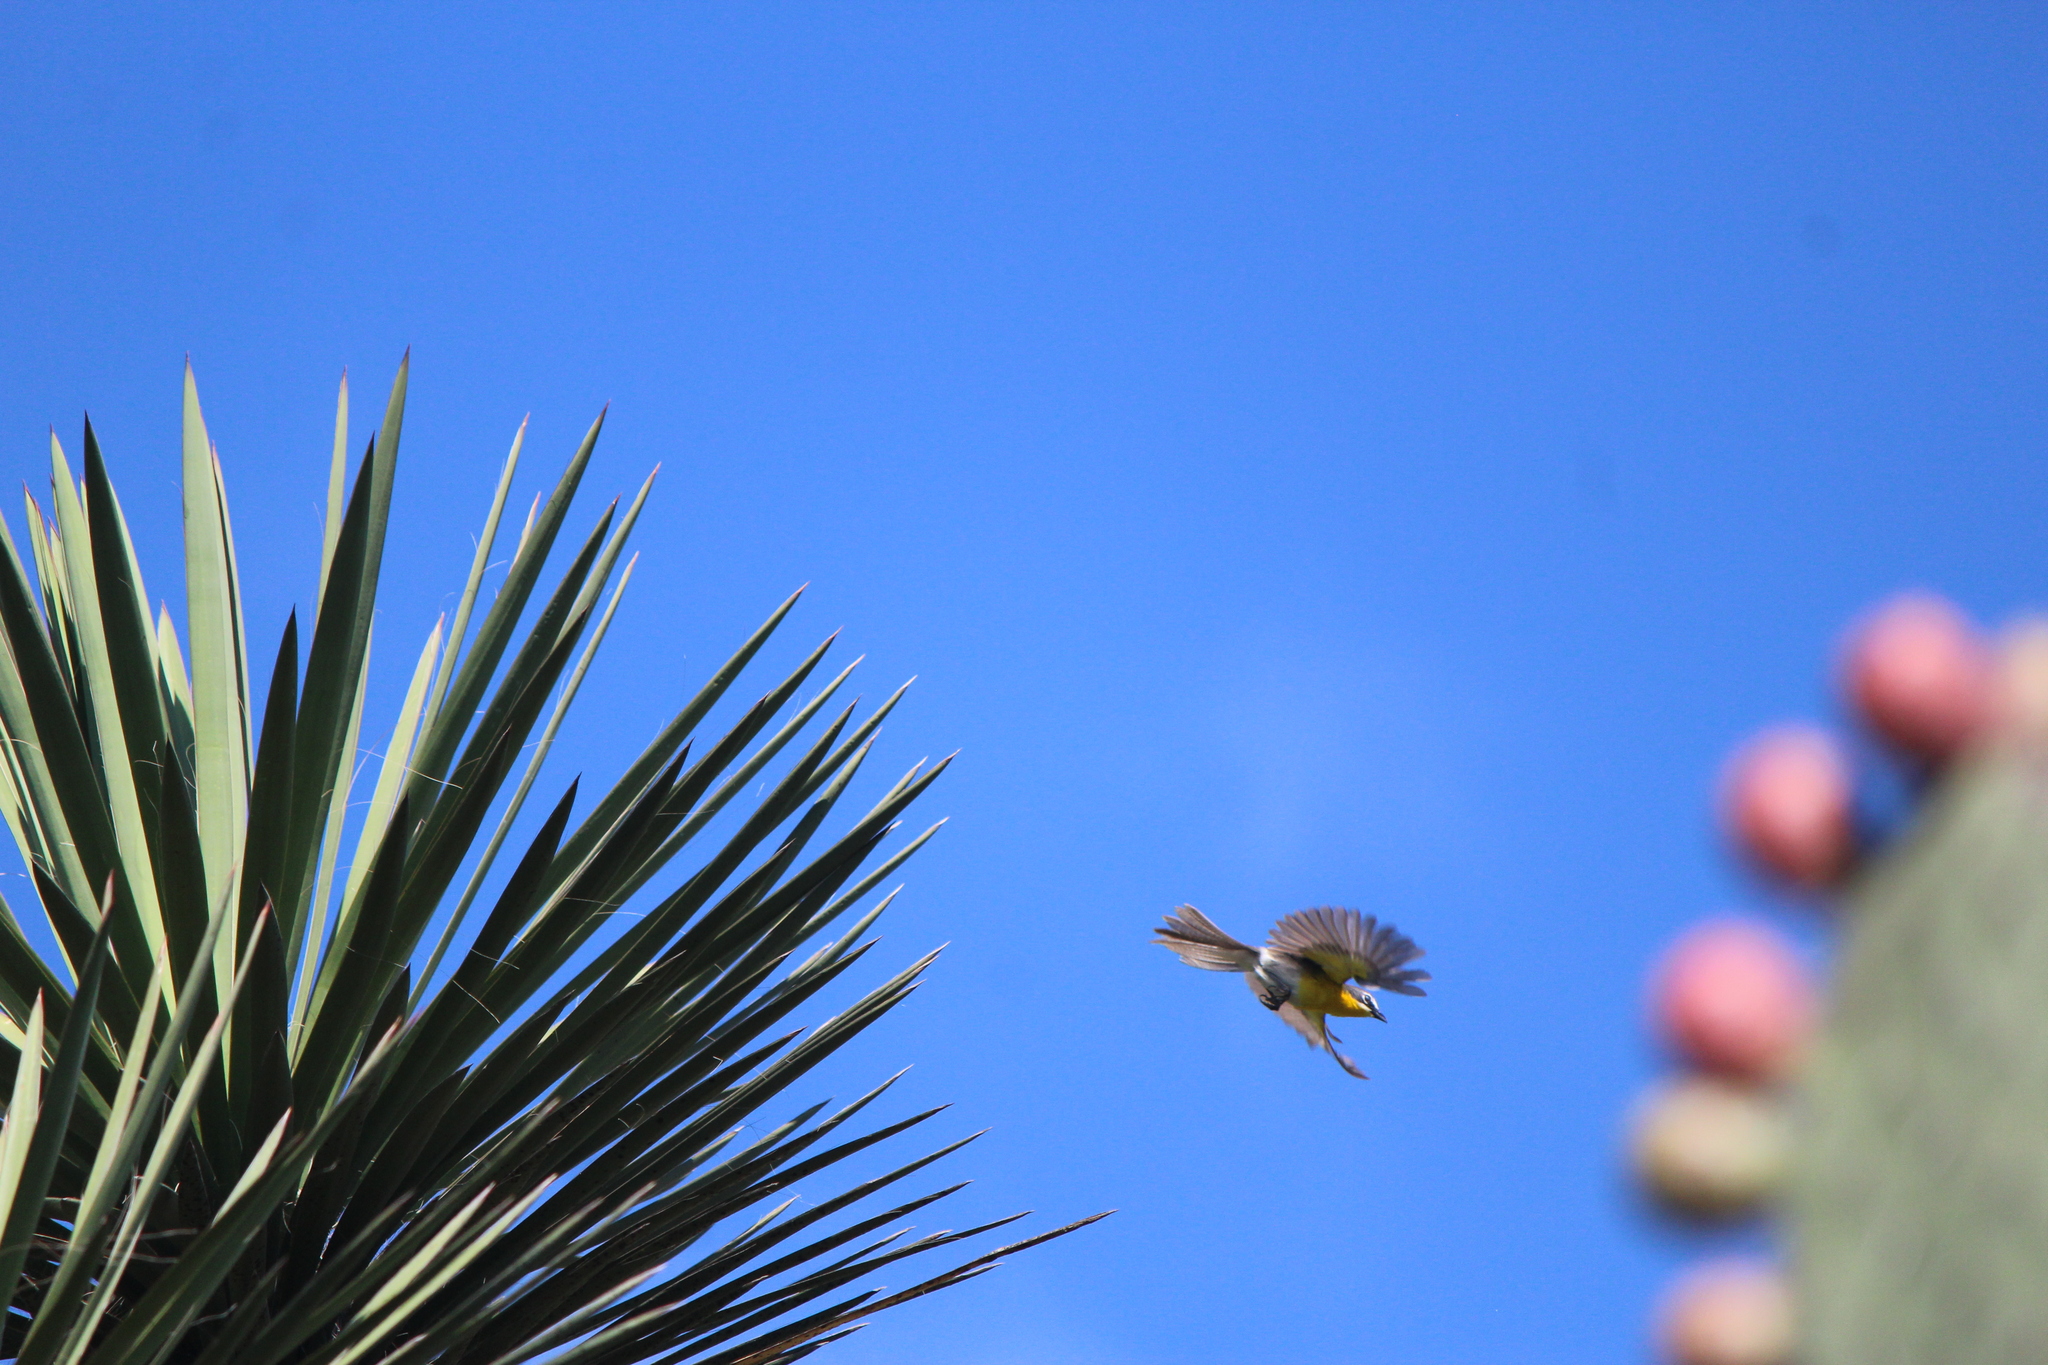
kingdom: Animalia
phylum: Chordata
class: Aves
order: Passeriformes
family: Parulidae
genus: Icteria
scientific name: Icteria virens
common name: Yellow-breasted chat
